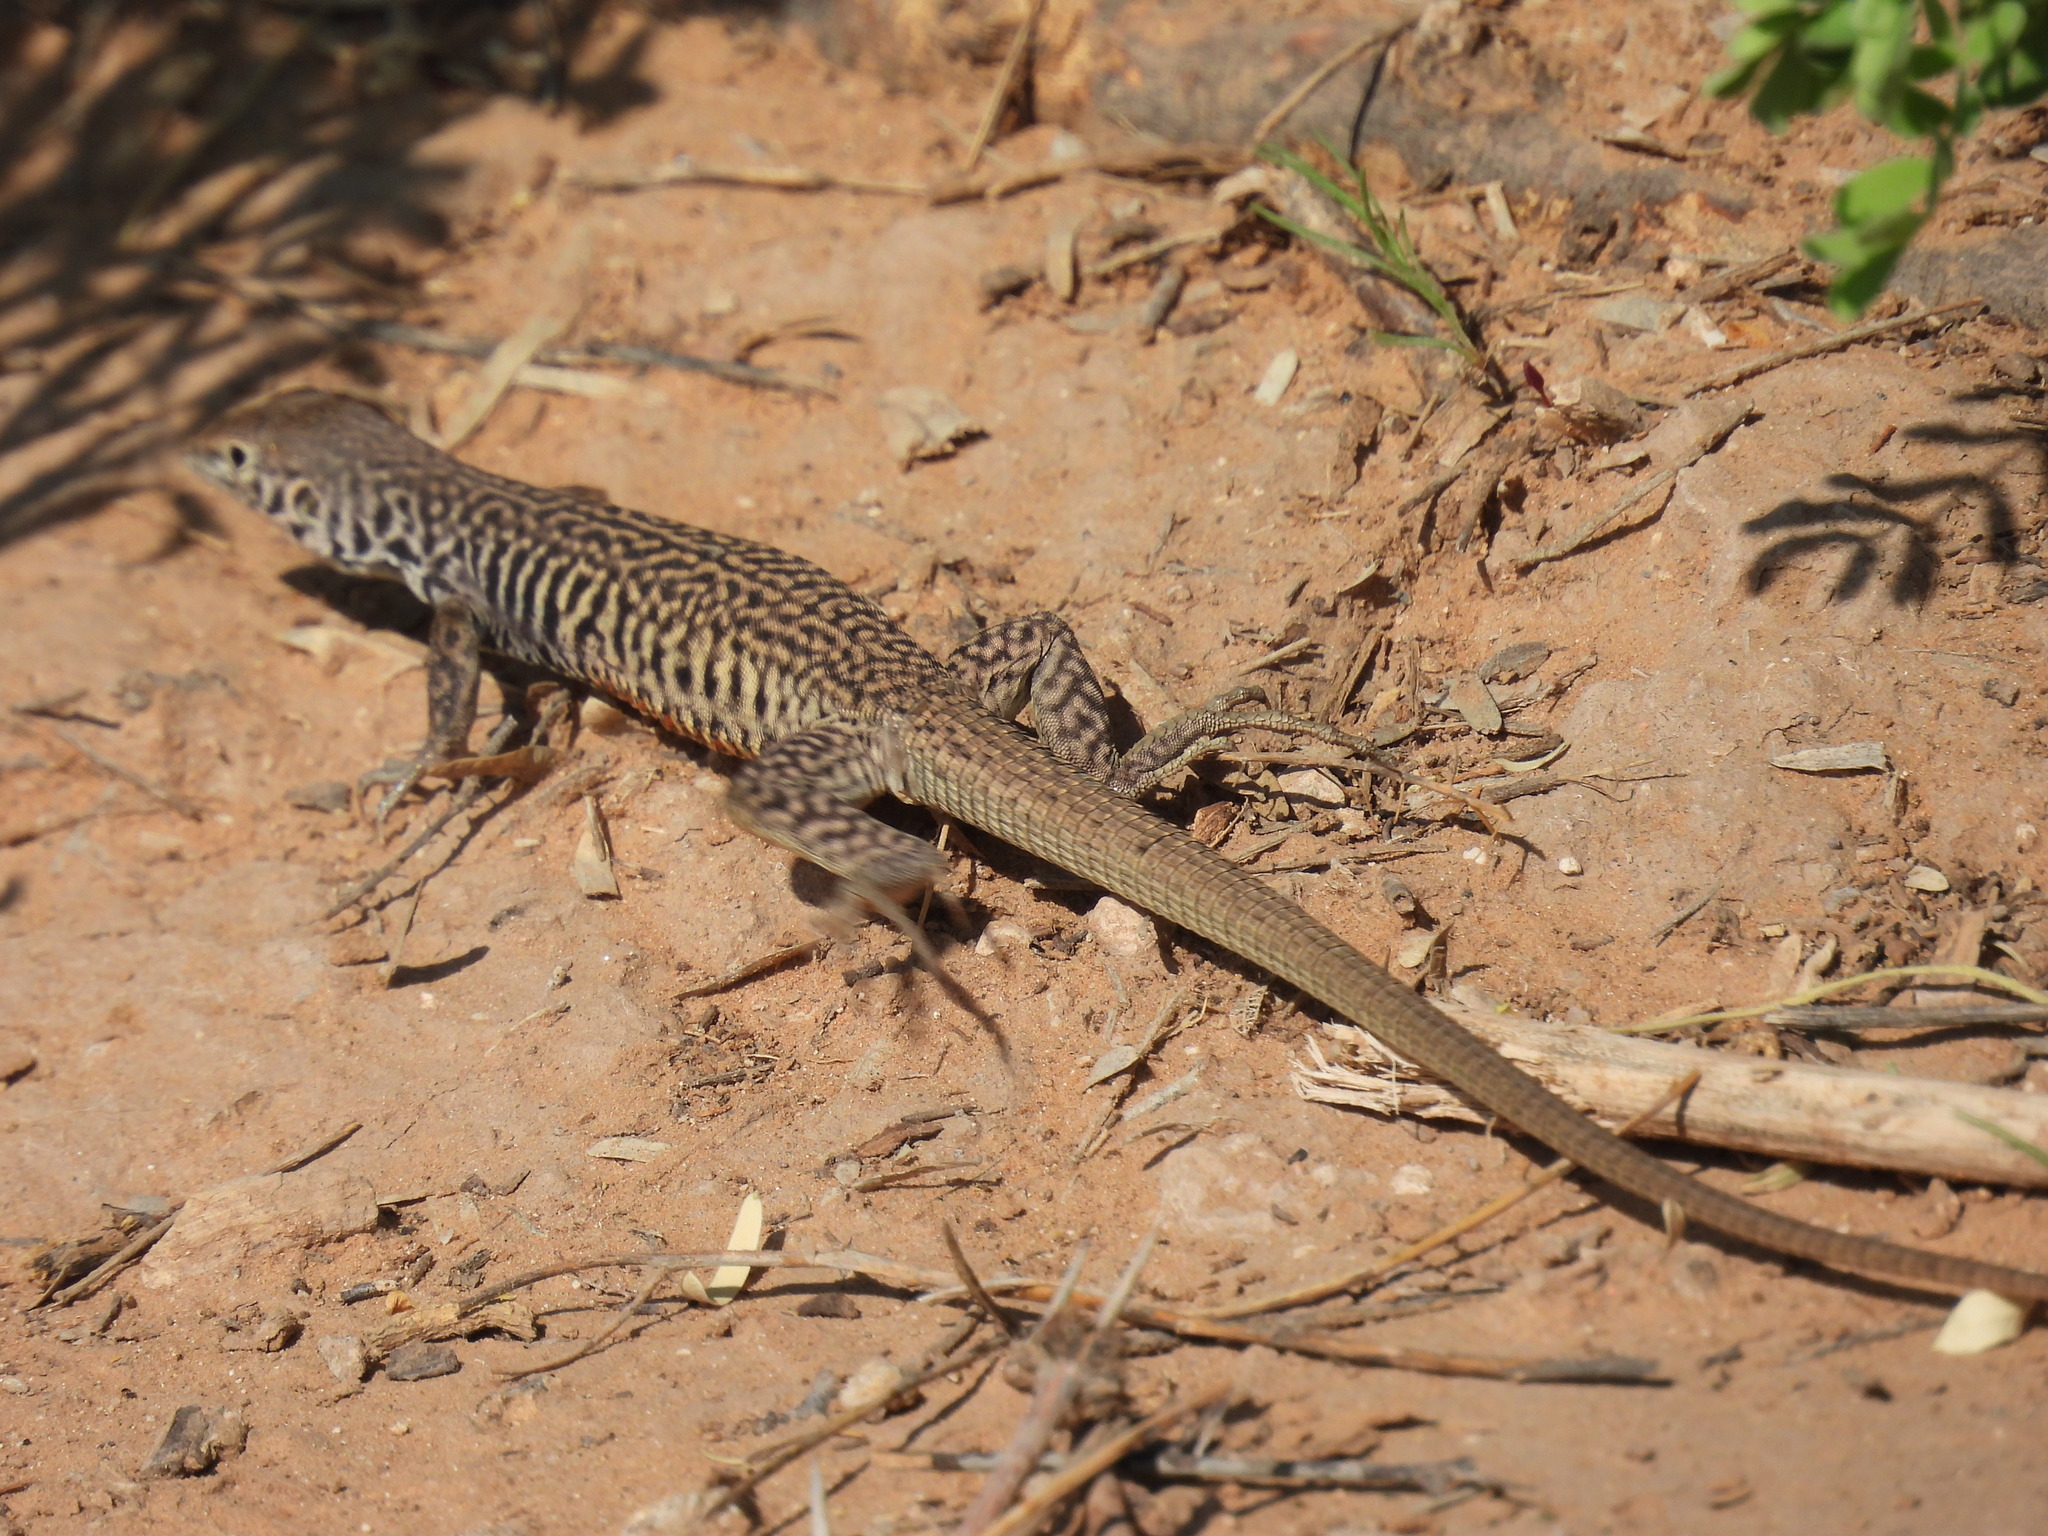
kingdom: Animalia
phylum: Chordata
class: Squamata
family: Teiidae
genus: Aspidoscelis
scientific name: Aspidoscelis marmoratus
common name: Eastern marbled whiptail [reticuloriens]
